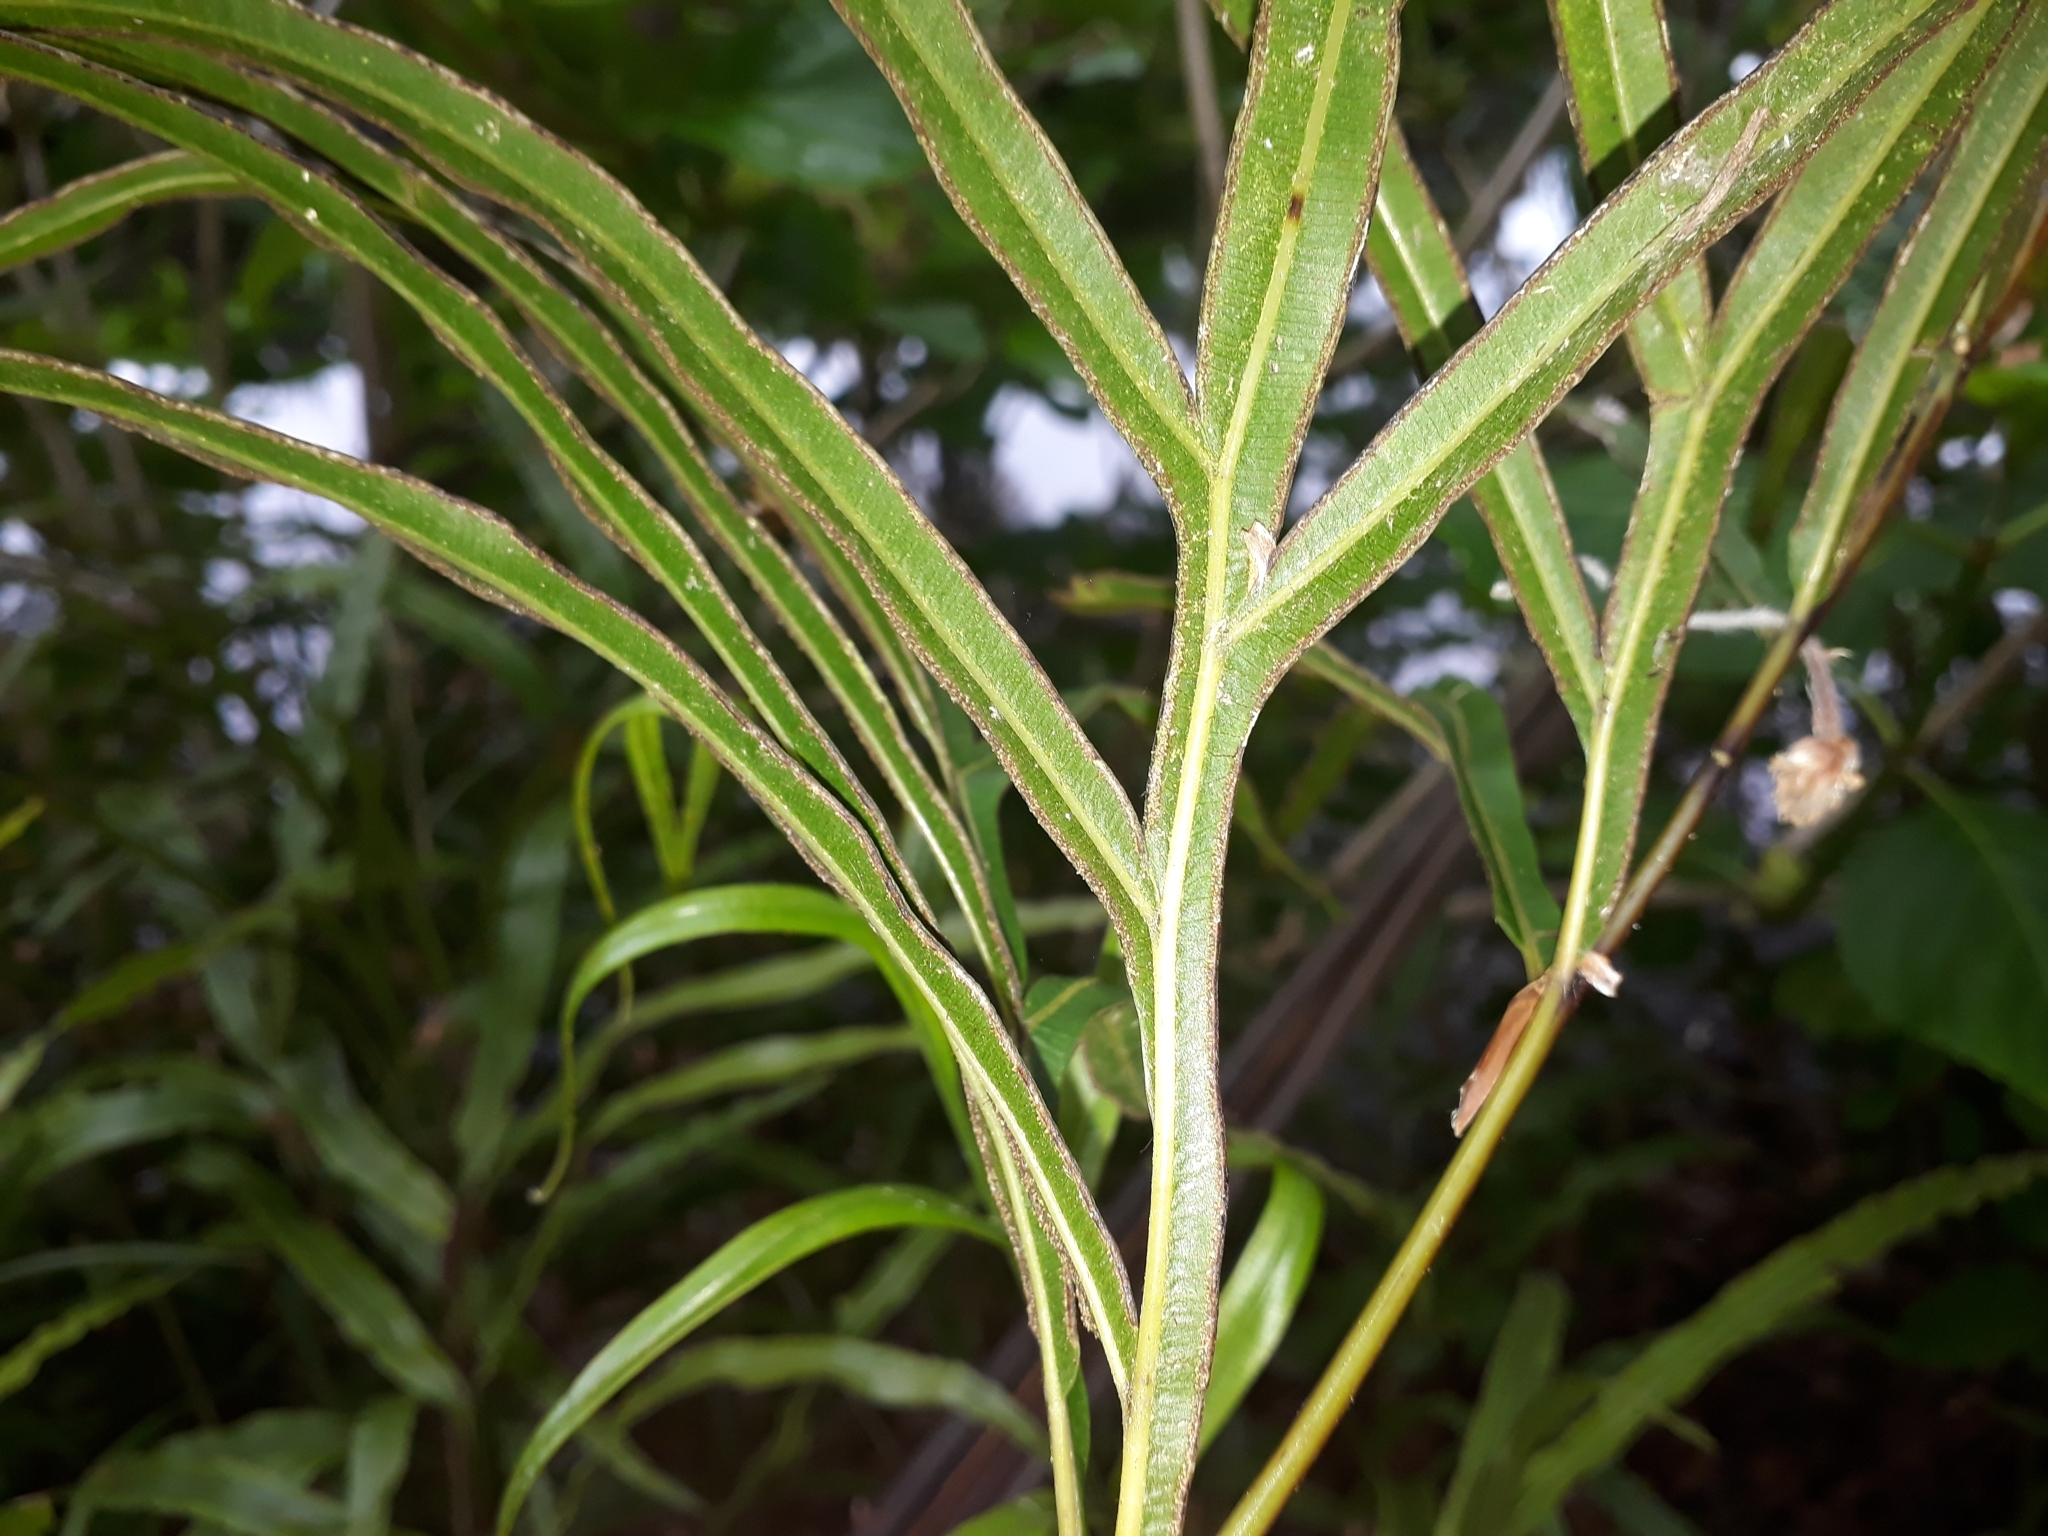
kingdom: Plantae
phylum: Tracheophyta
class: Polypodiopsida
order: Polypodiales
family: Pteridaceae
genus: Pteris
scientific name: Pteris cretica
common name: Ribbon fern
